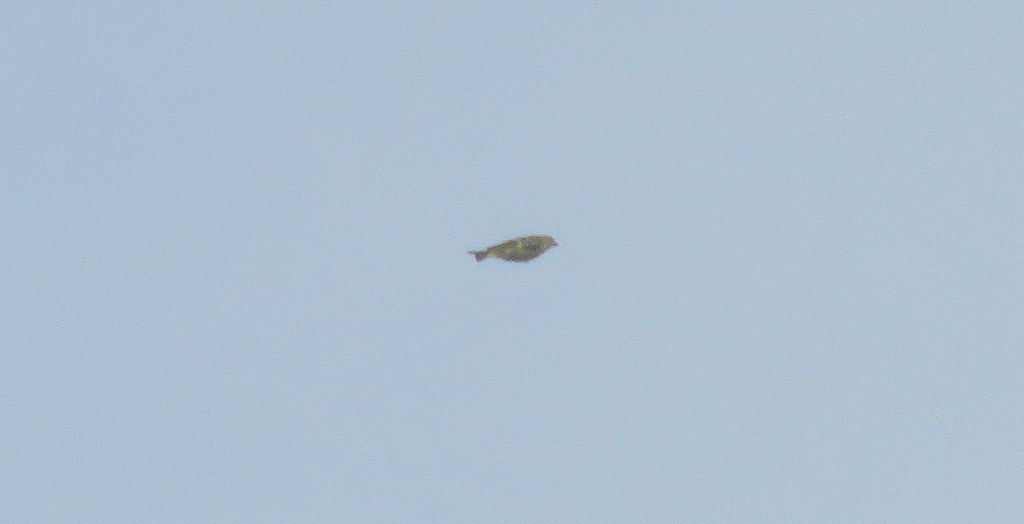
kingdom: Animalia
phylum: Chordata
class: Aves
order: Passeriformes
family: Fringillidae
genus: Spinus
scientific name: Spinus magellanicus
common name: Hooded siskin
